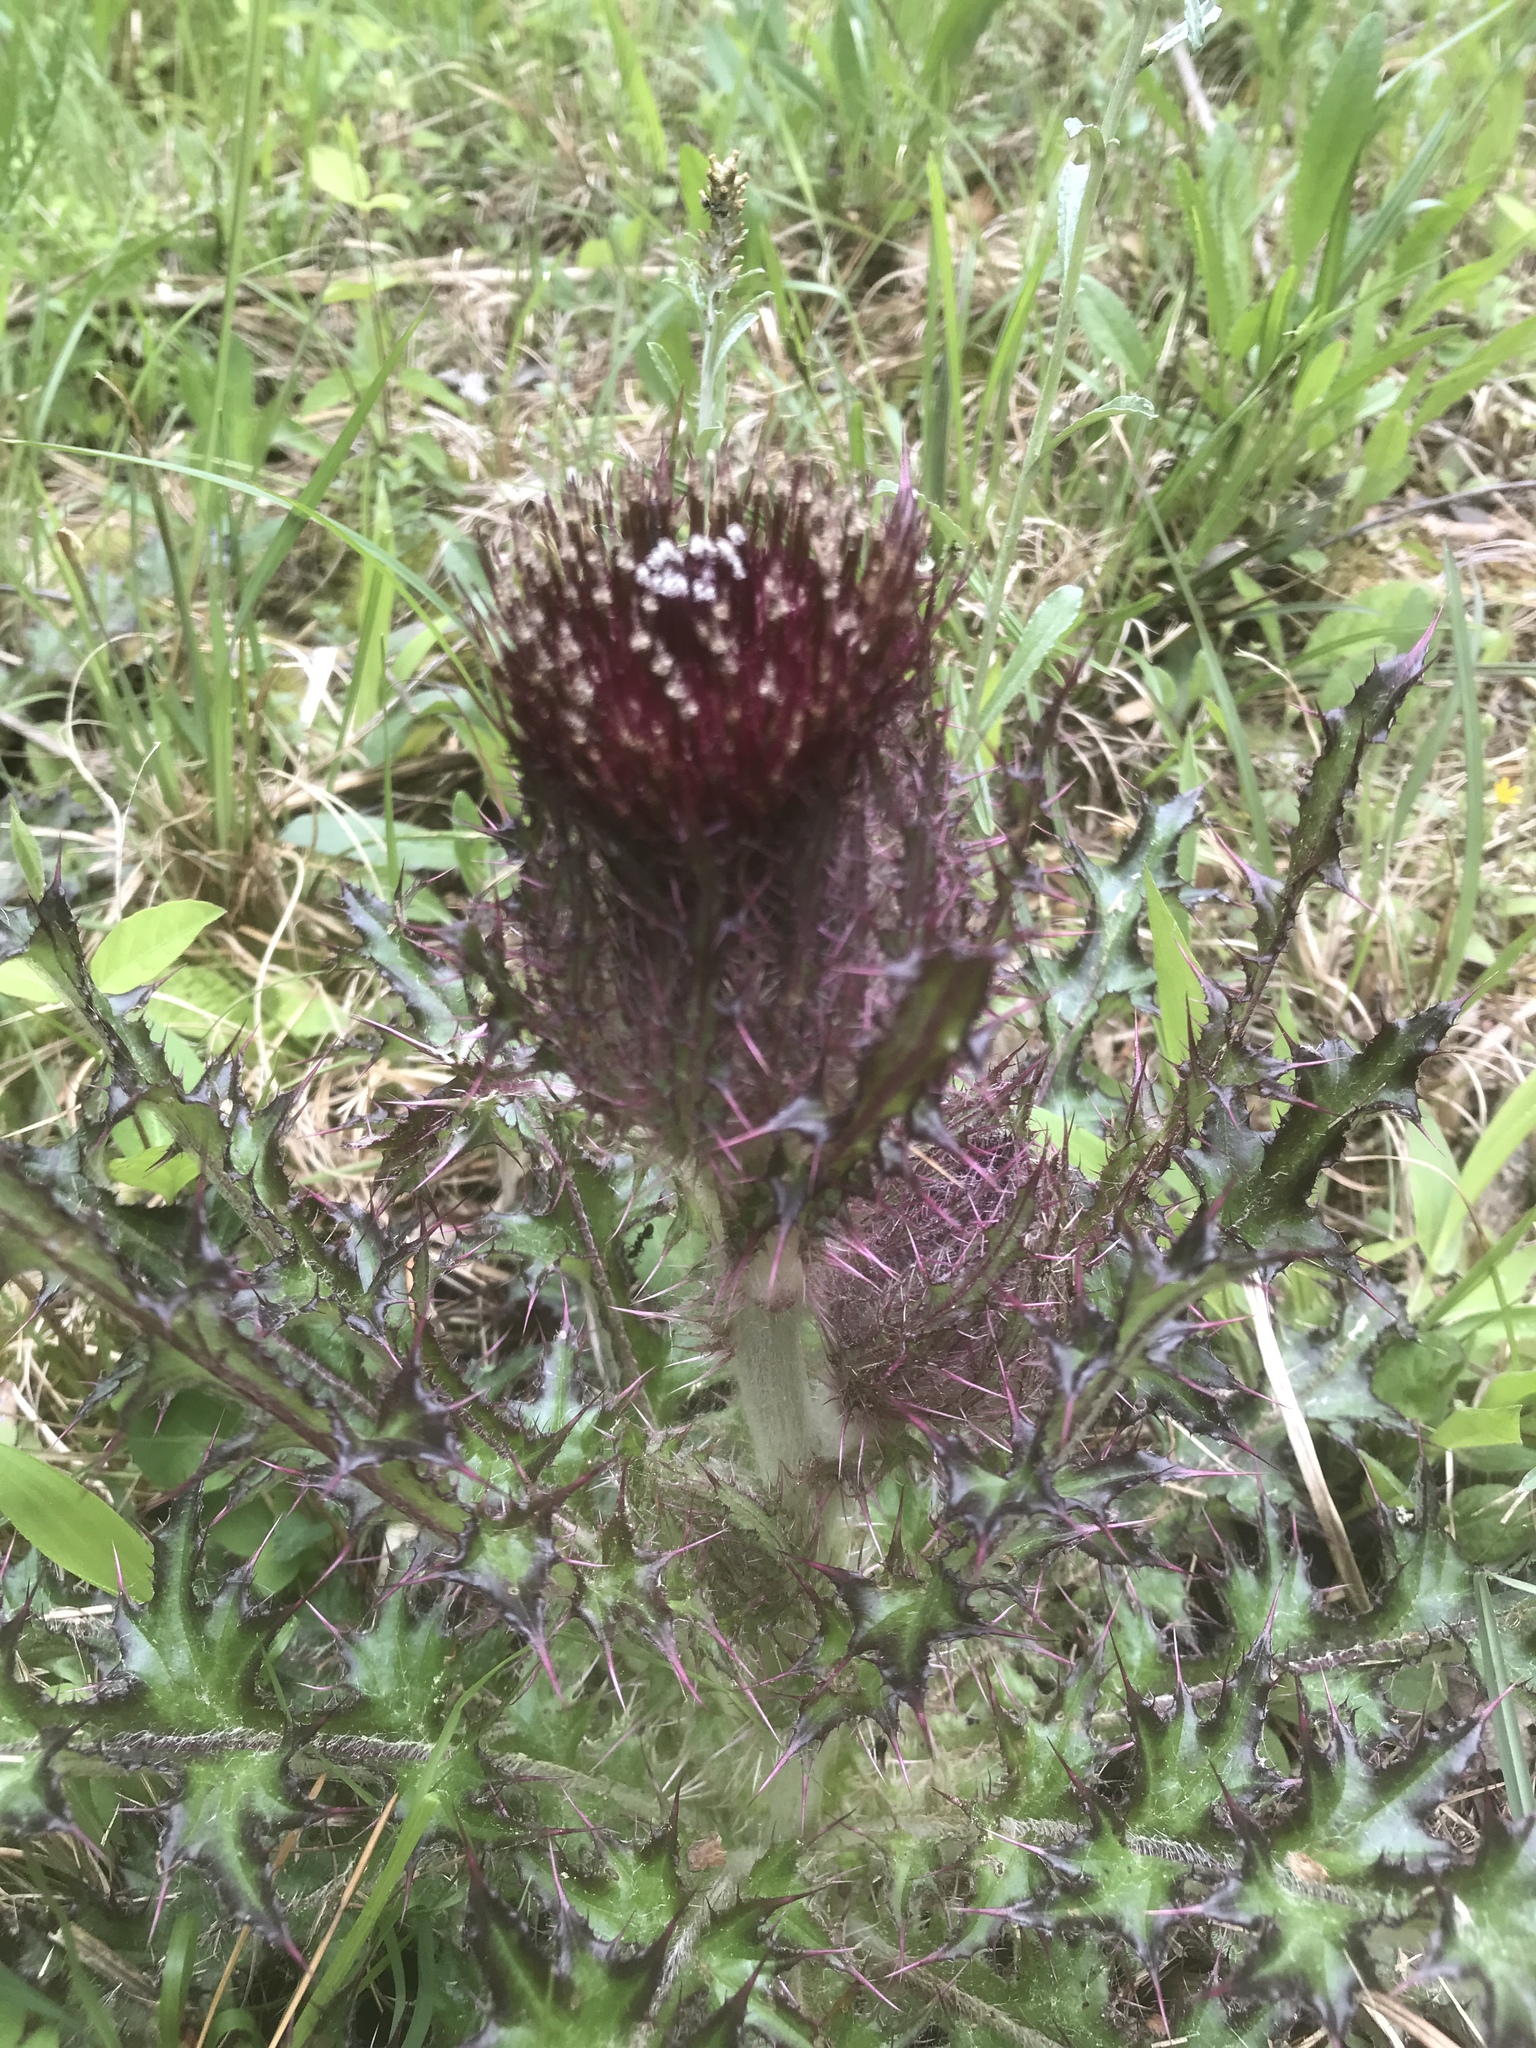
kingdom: Plantae
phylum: Tracheophyta
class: Magnoliopsida
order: Asterales
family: Asteraceae
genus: Cirsium
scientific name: Cirsium horridulum
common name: Bristly thistle
